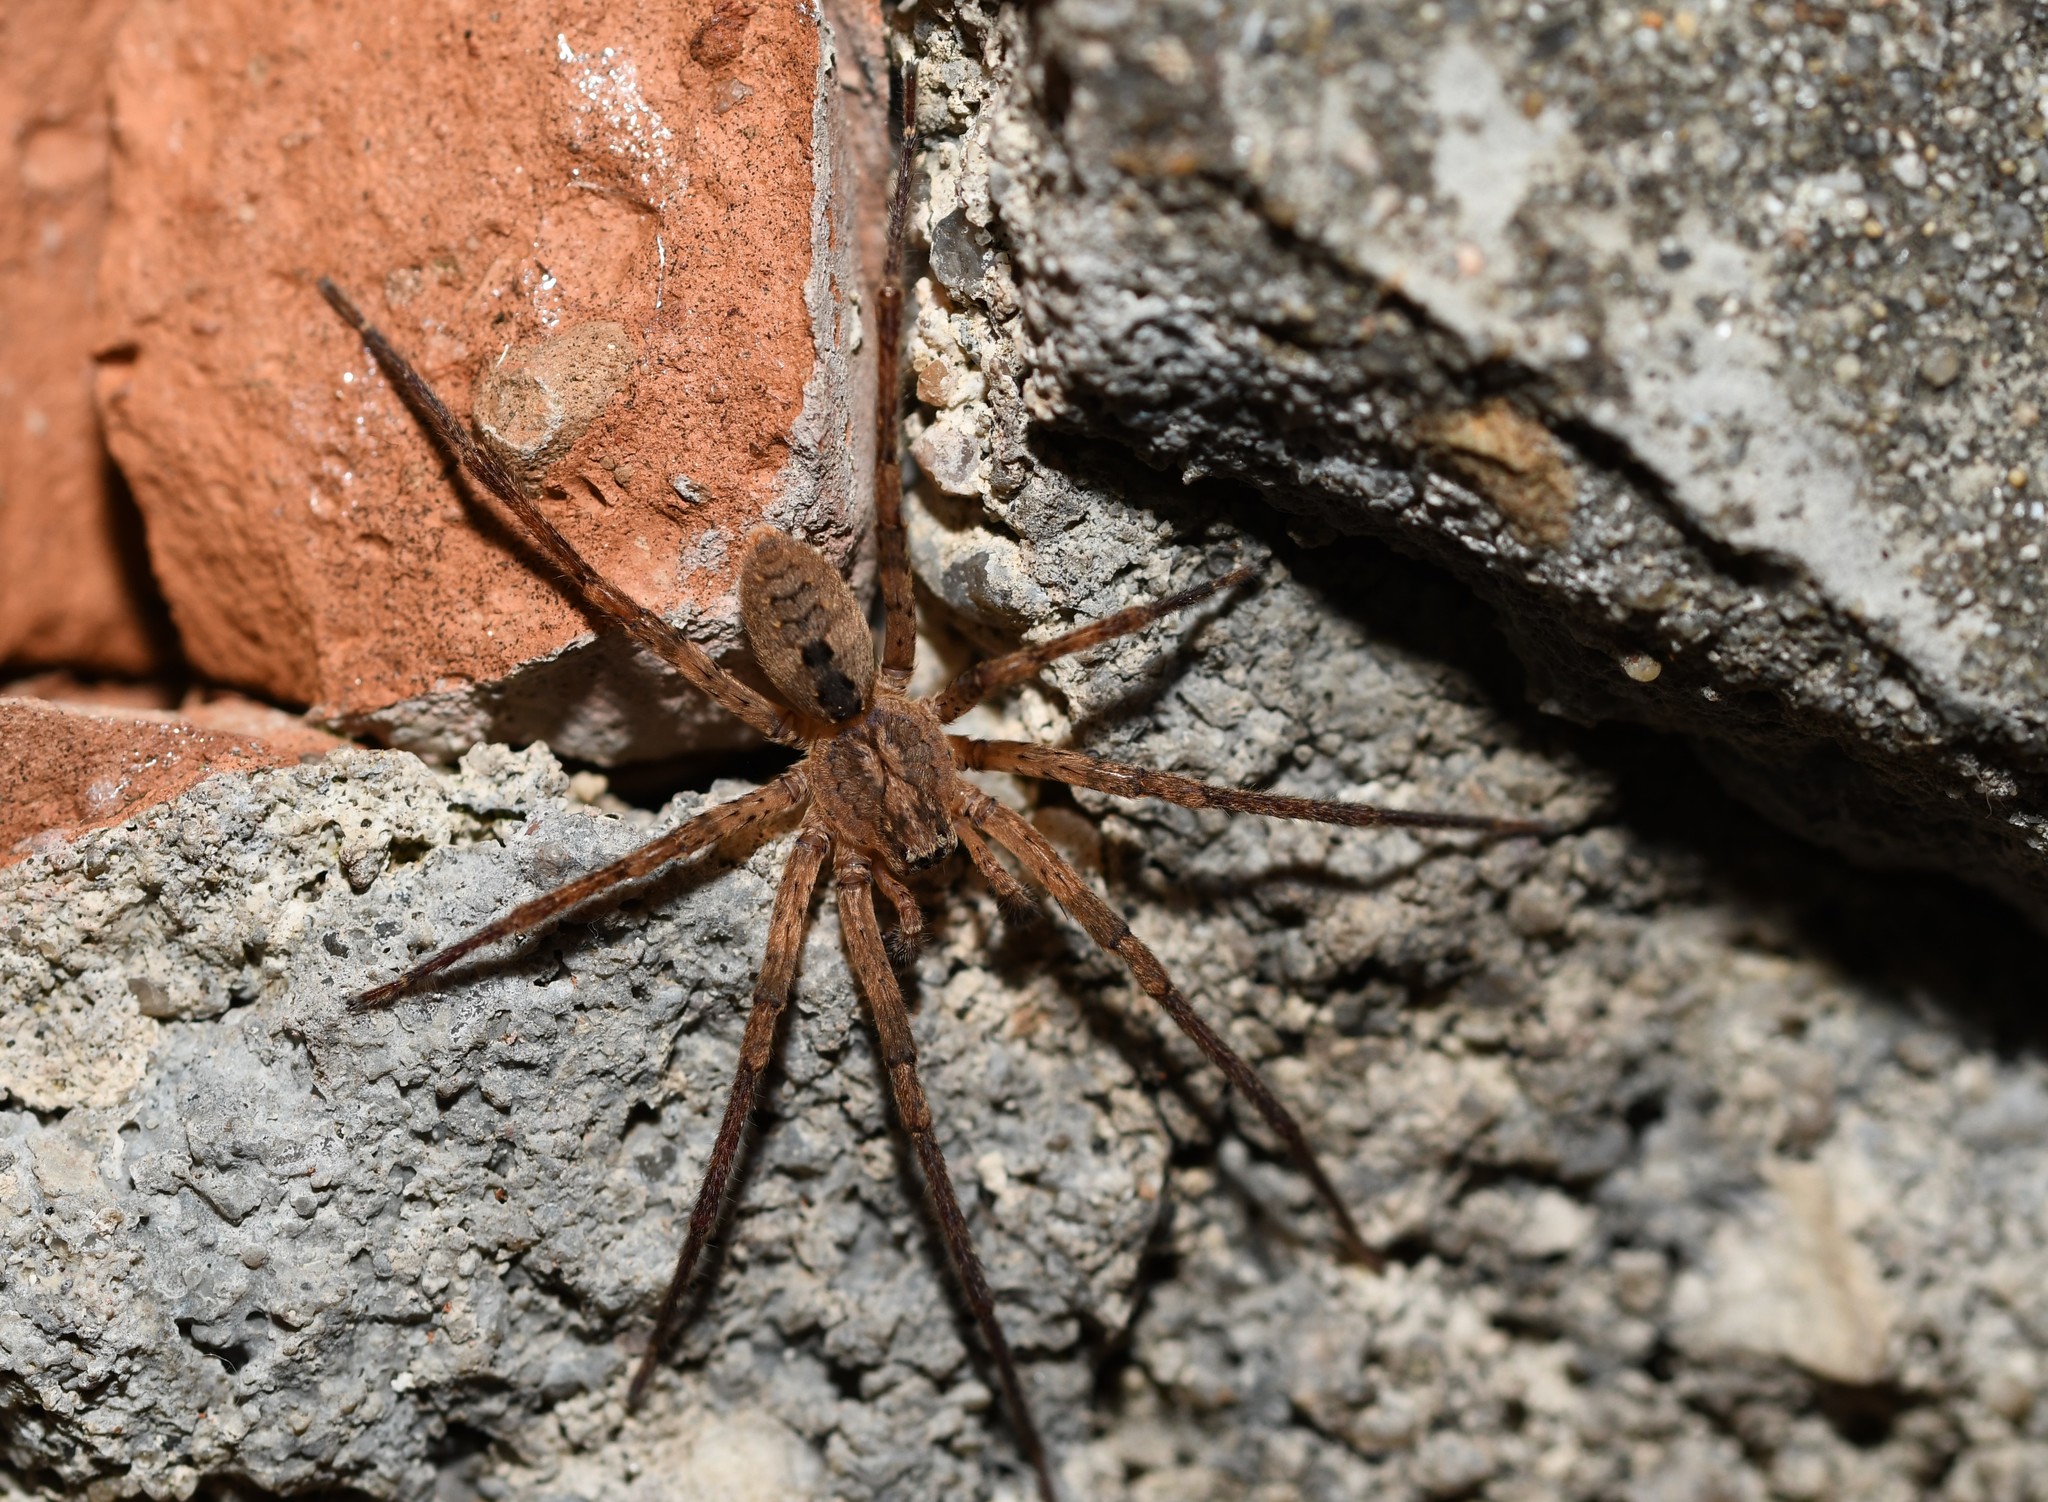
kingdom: Animalia
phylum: Arthropoda
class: Arachnida
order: Araneae
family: Zoropsidae
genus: Zoropsis
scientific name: Zoropsis spinimana
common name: Zoropsid spider
